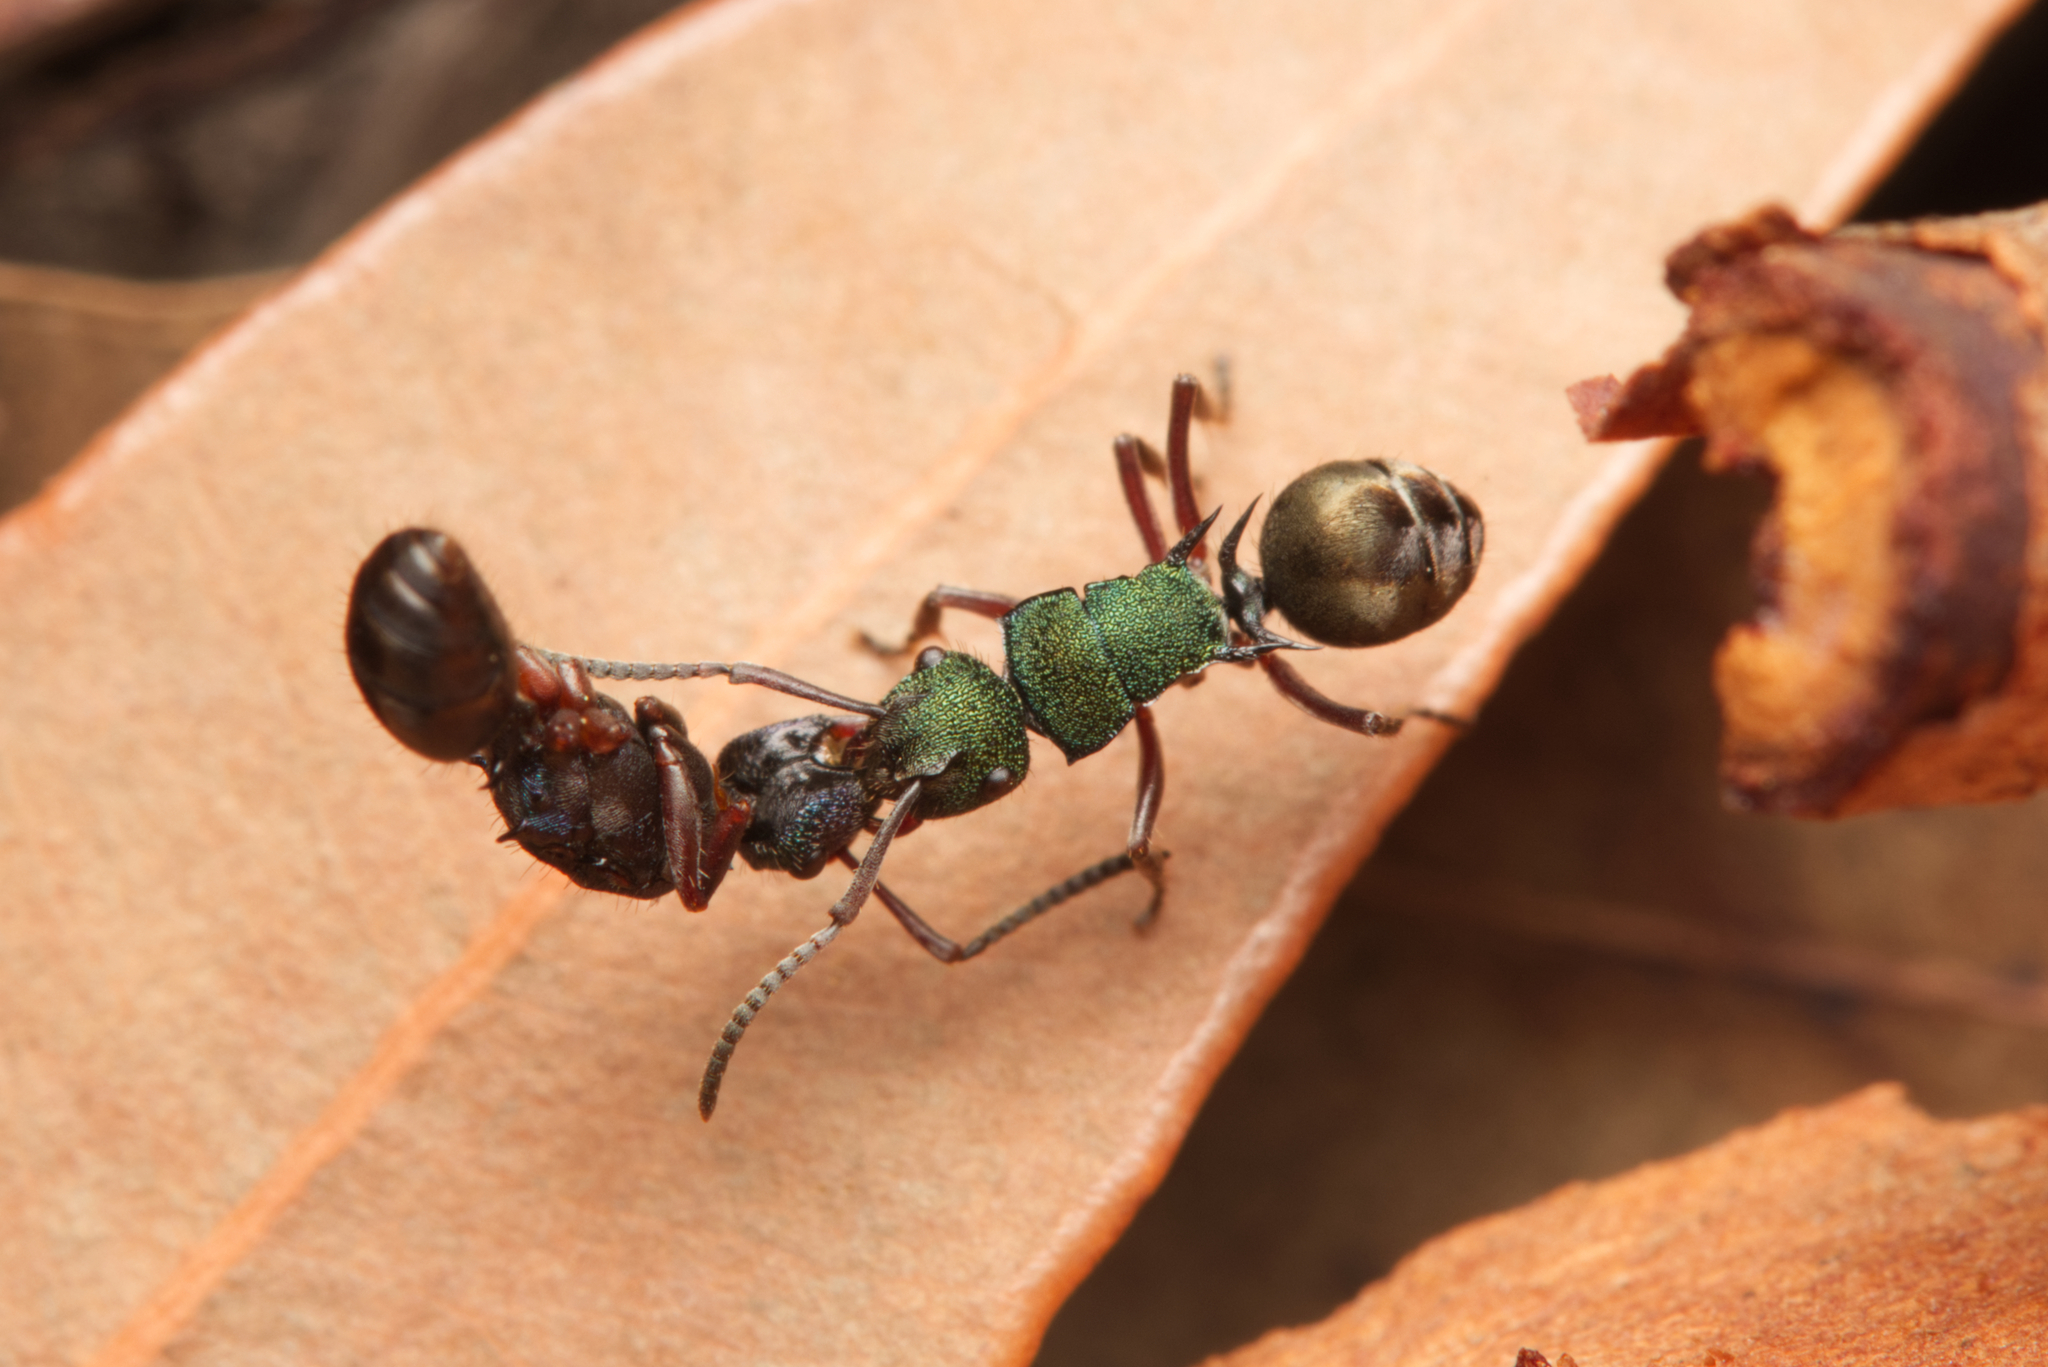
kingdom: Animalia
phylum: Arthropoda
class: Insecta
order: Hymenoptera
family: Formicidae
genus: Polyrhachis
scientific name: Polyrhachis hookeri
